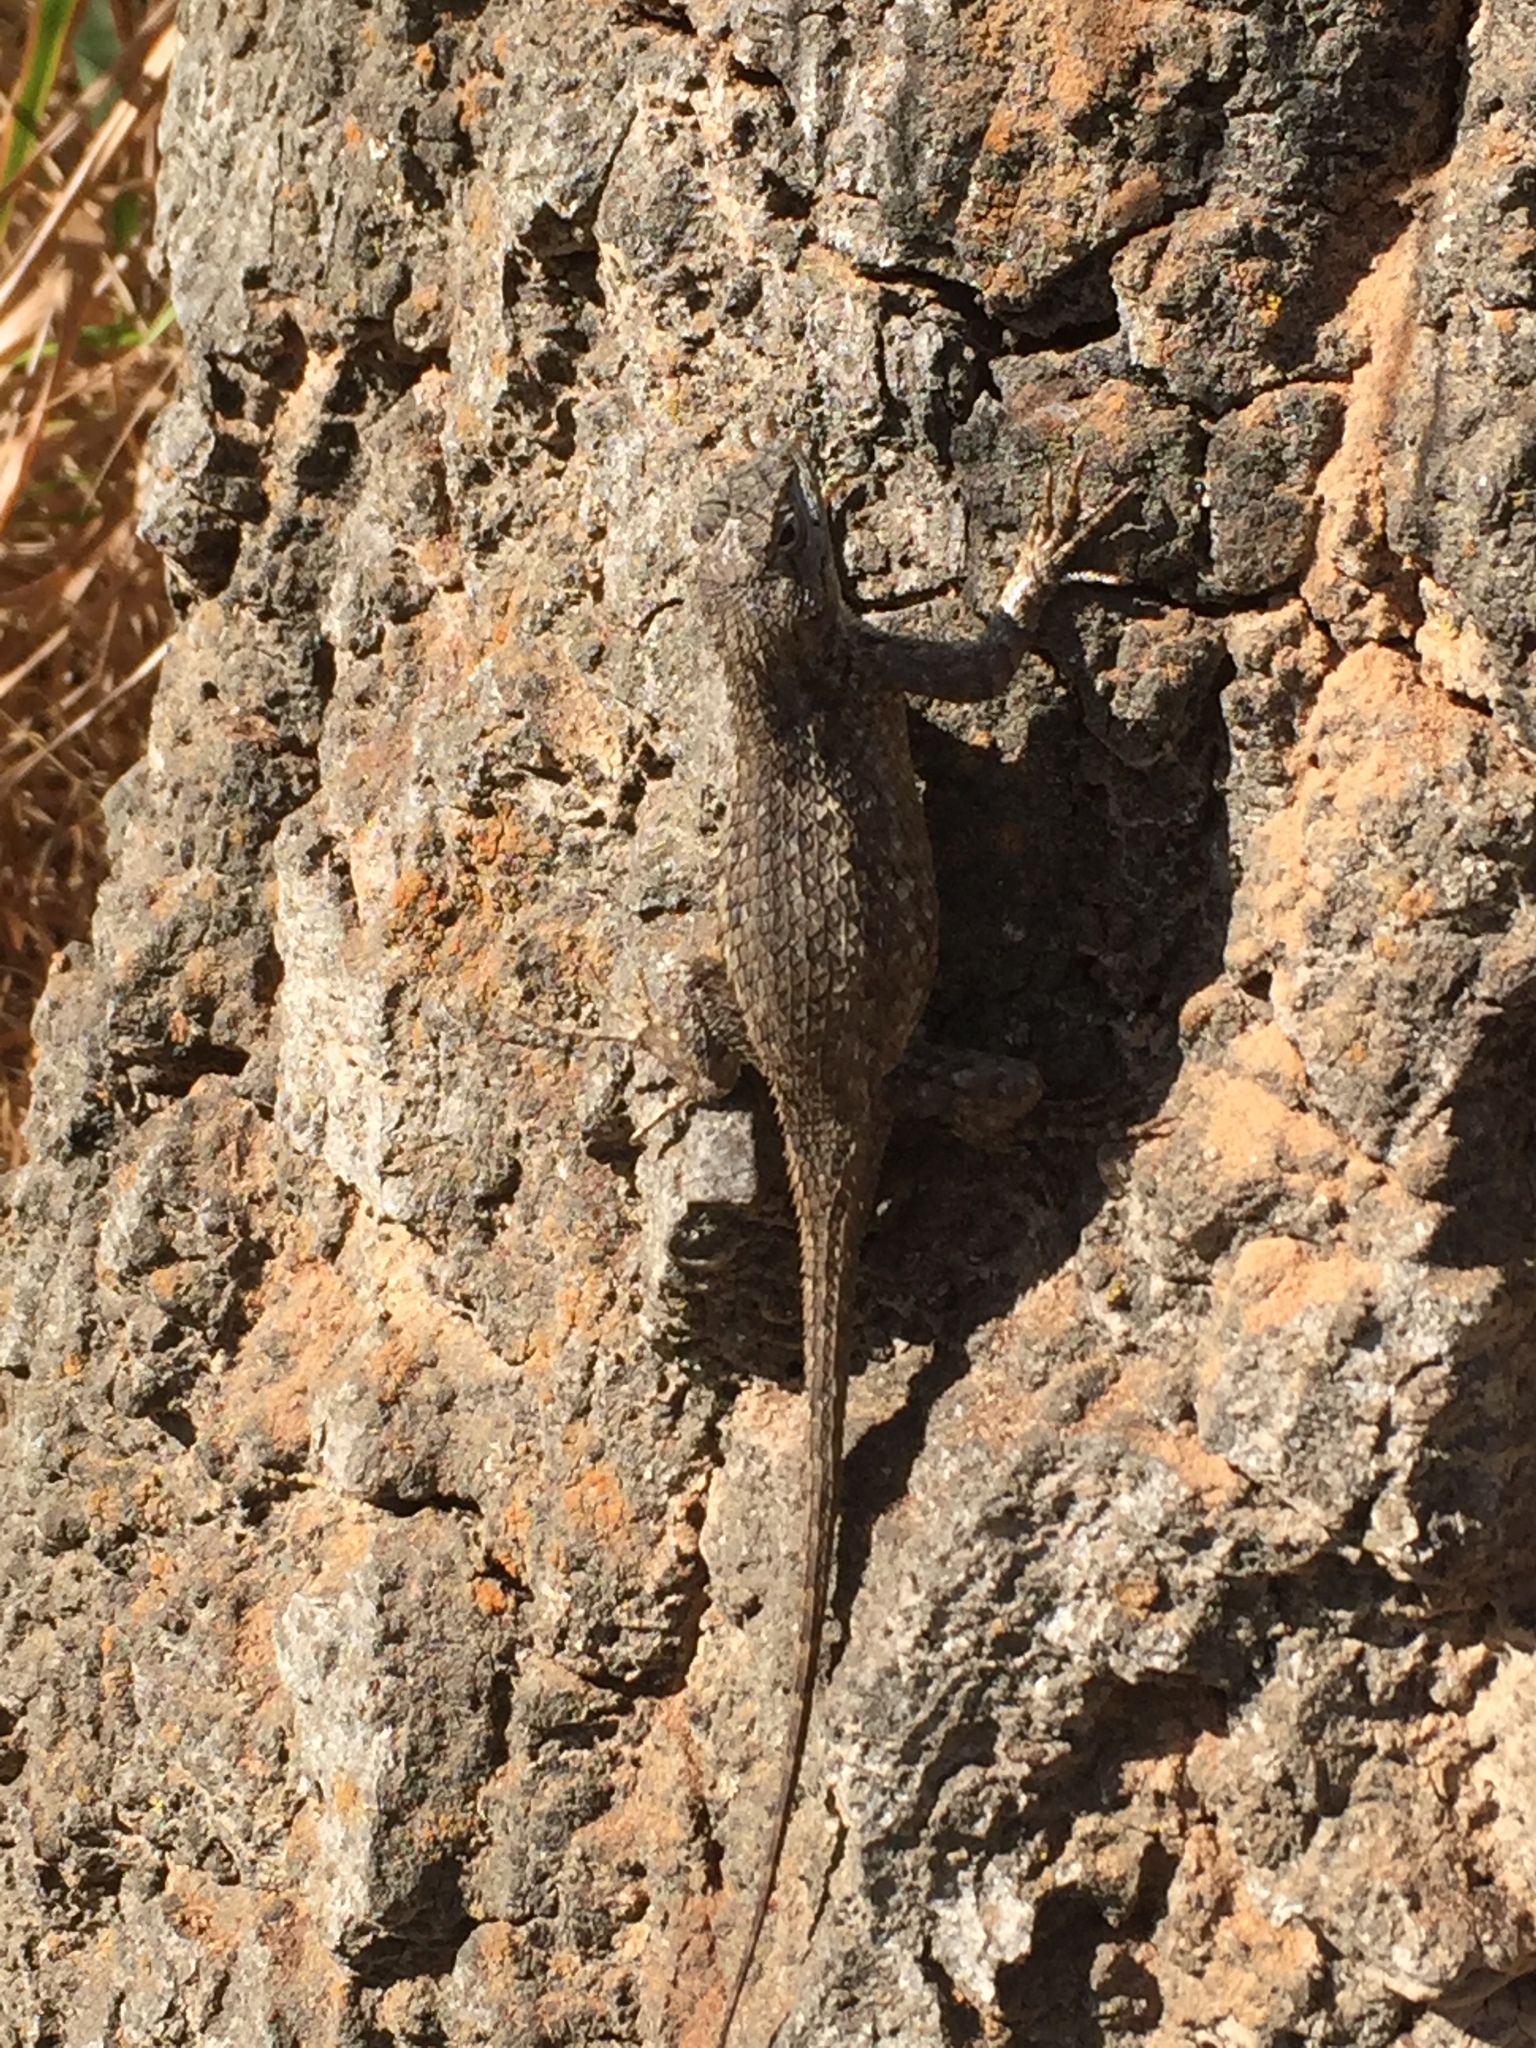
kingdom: Animalia
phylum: Chordata
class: Squamata
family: Phrynosomatidae
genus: Sceloporus
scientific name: Sceloporus occidentalis
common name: Western fence lizard
